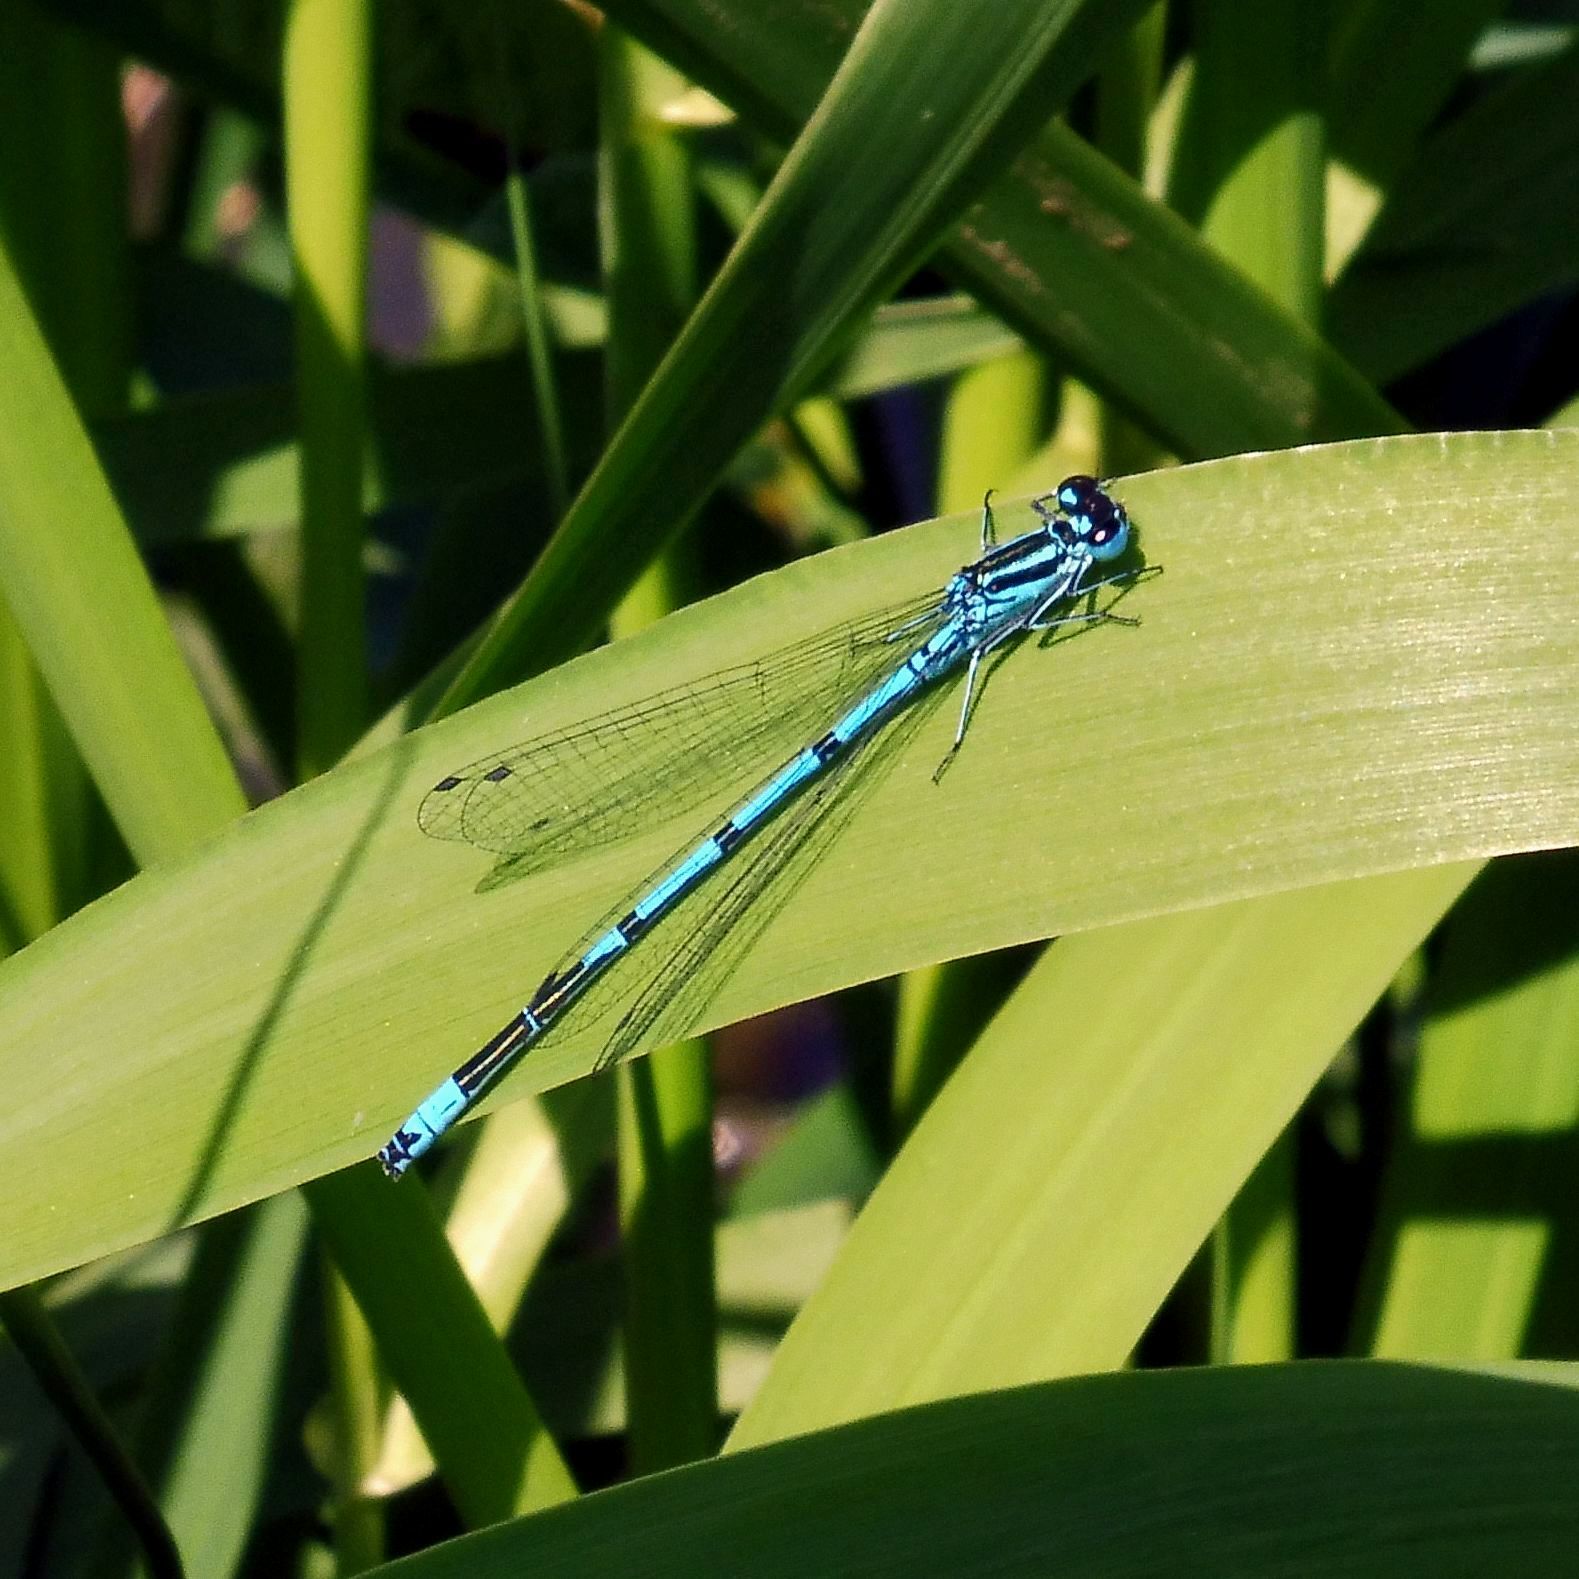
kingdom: Animalia
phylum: Arthropoda
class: Insecta
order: Odonata
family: Coenagrionidae
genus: Coenagrion
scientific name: Coenagrion puella
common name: Azure damselfly
